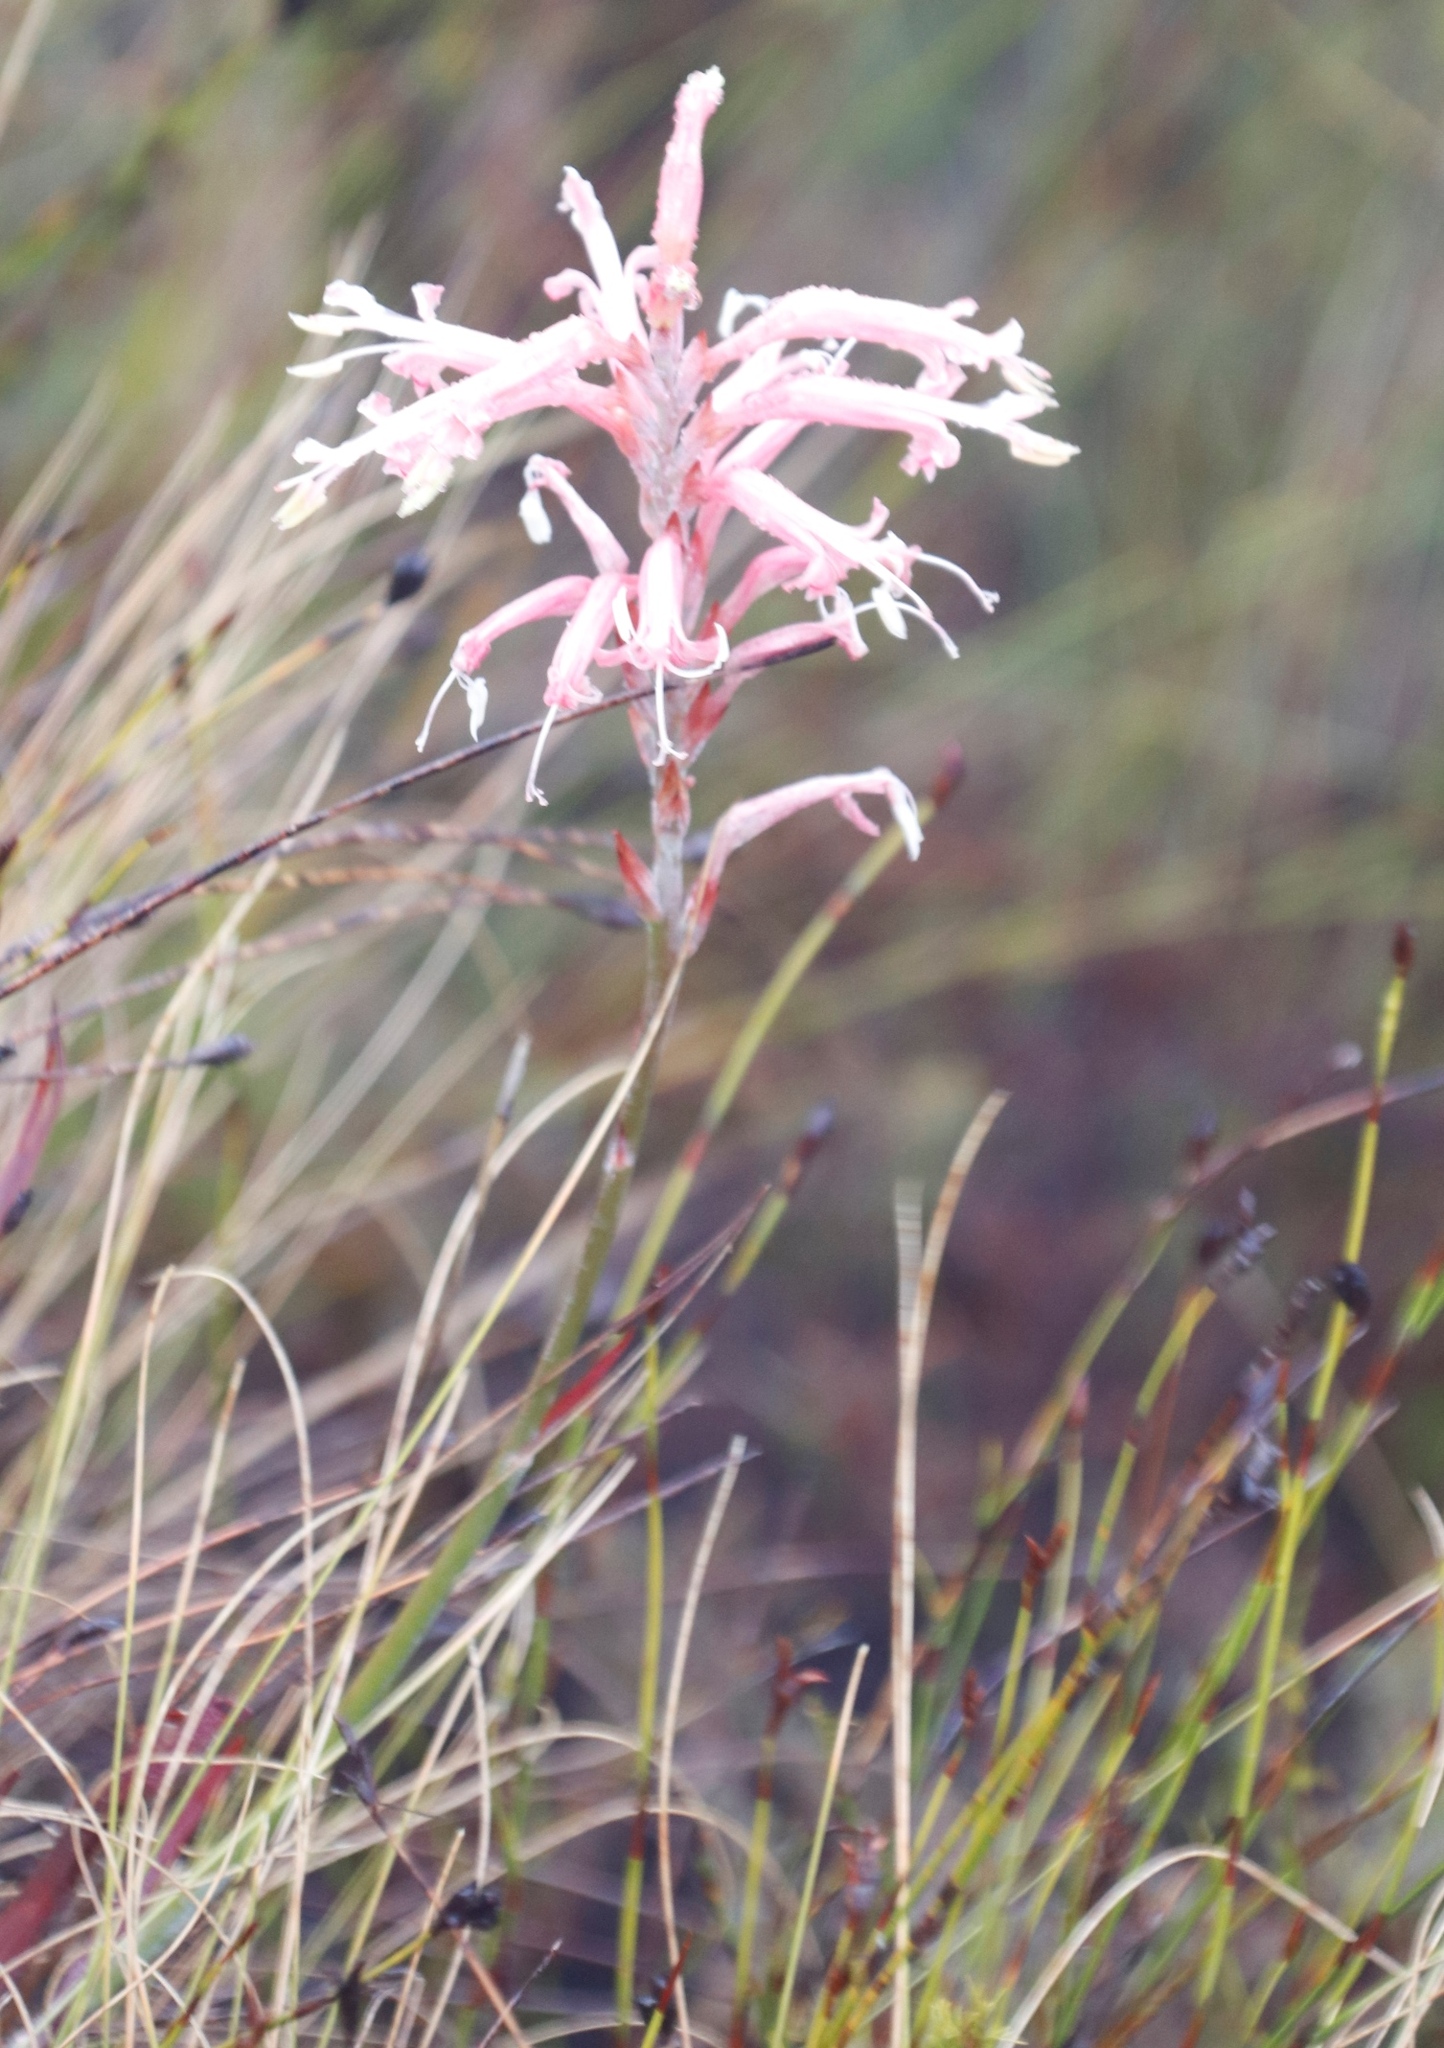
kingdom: Plantae
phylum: Tracheophyta
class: Liliopsida
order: Asparagales
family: Iridaceae
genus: Tritoniopsis
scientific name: Tritoniopsis antholyza
